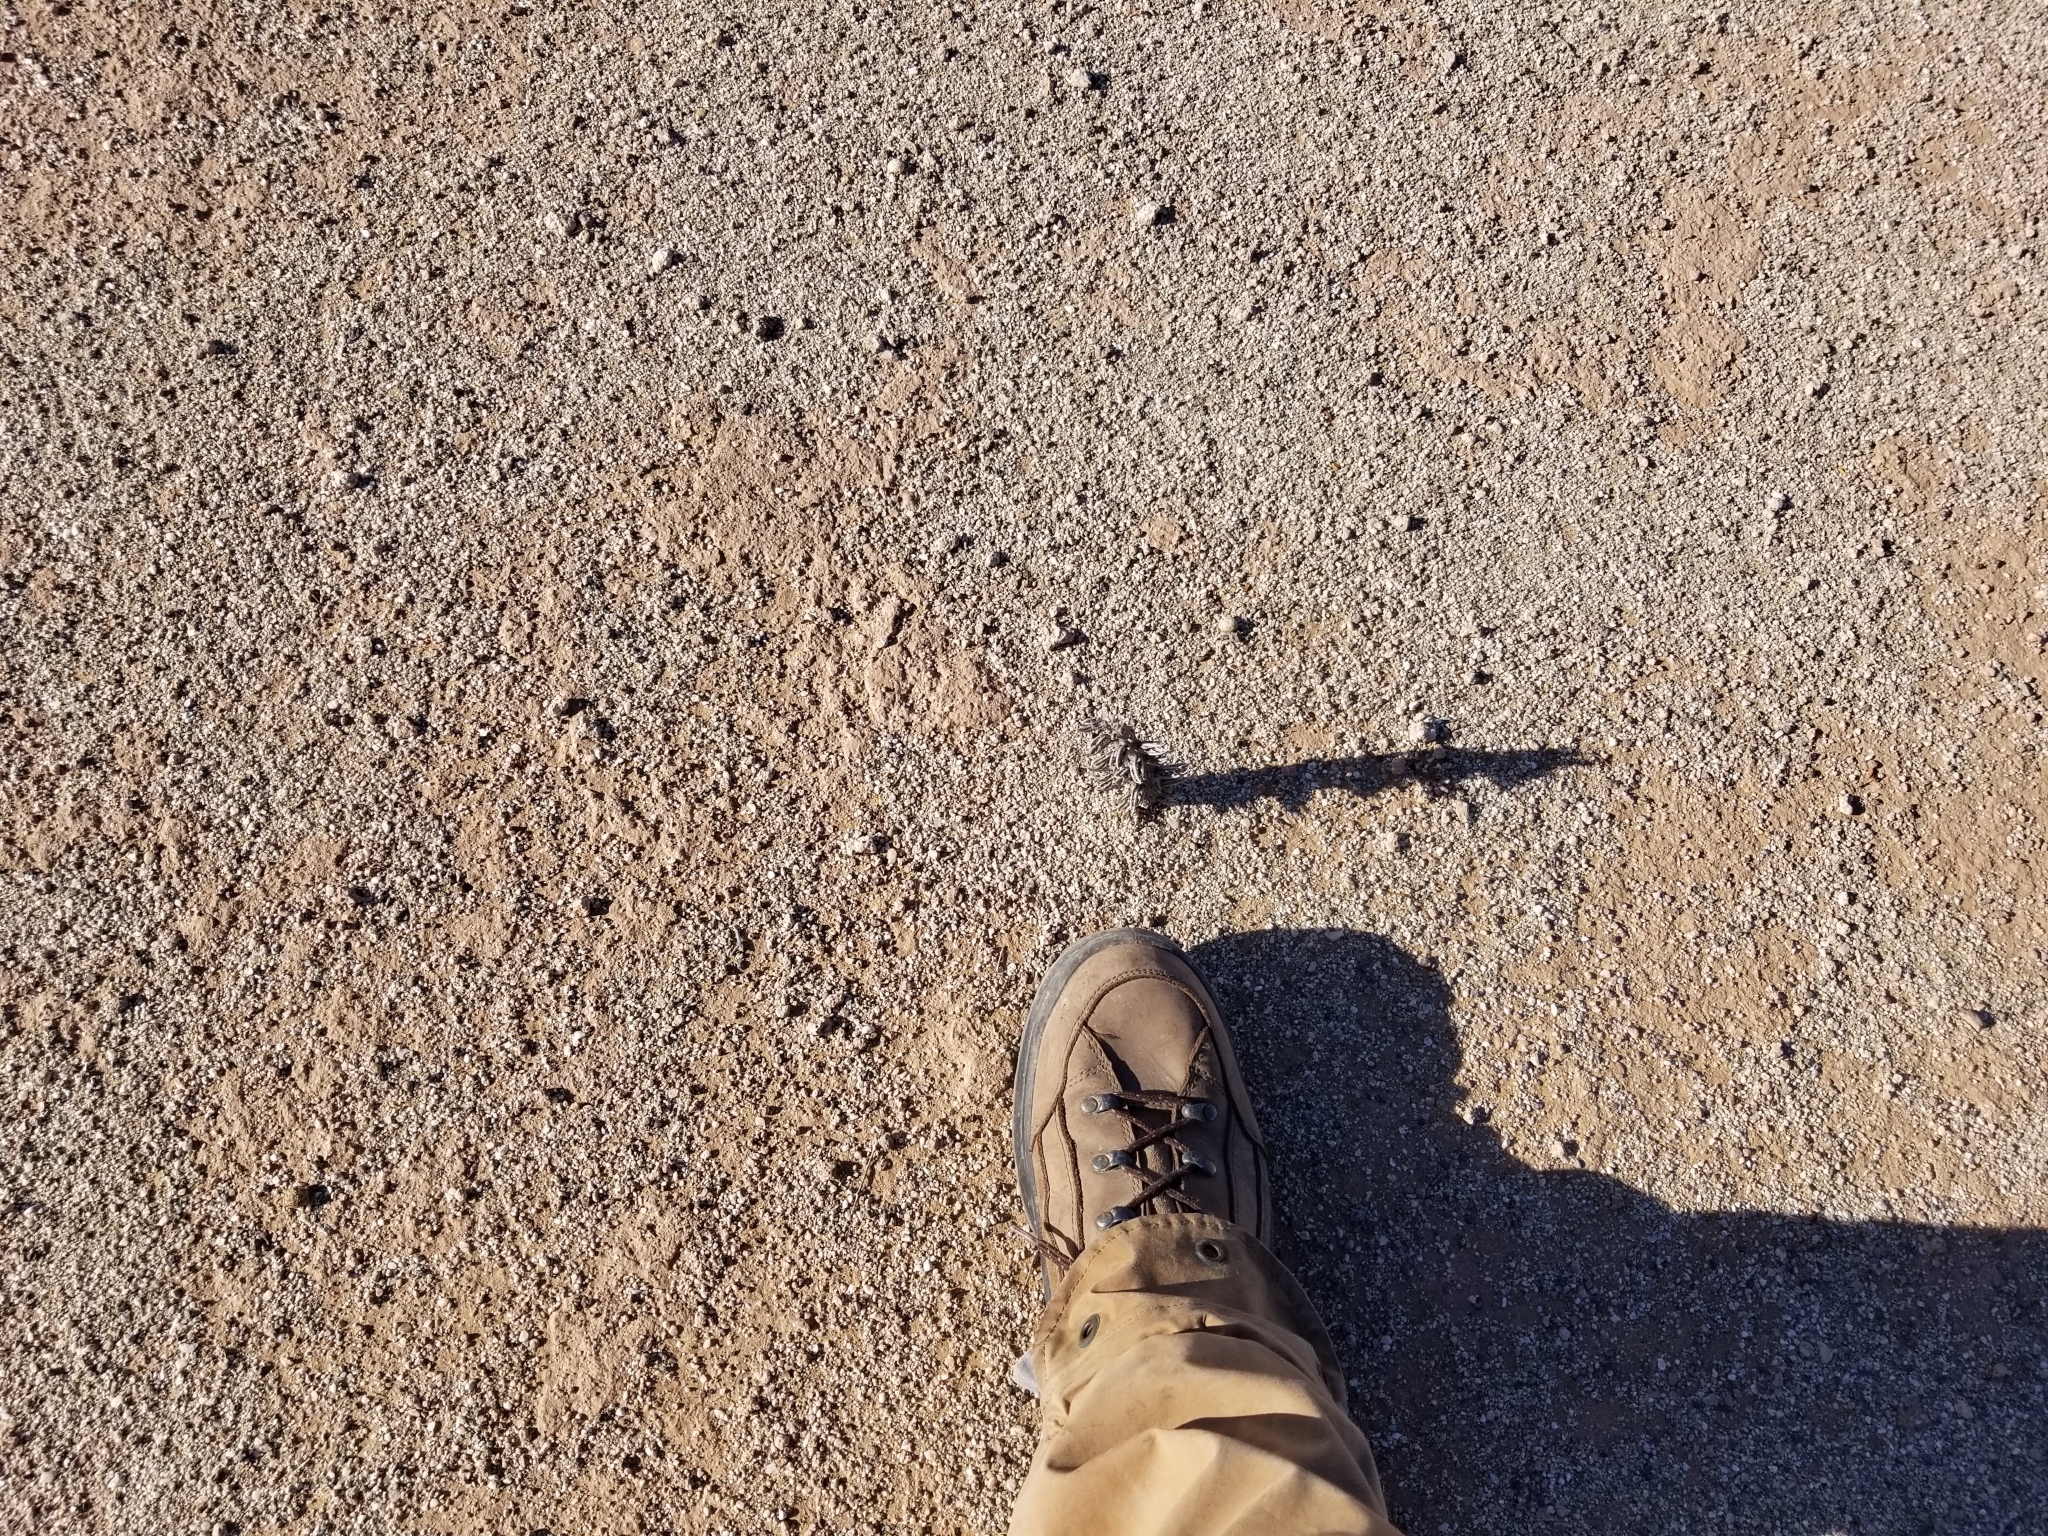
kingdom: Plantae
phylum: Tracheophyta
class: Magnoliopsida
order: Lamiales
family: Orobanchaceae
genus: Aphyllon
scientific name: Aphyllon cooperi
